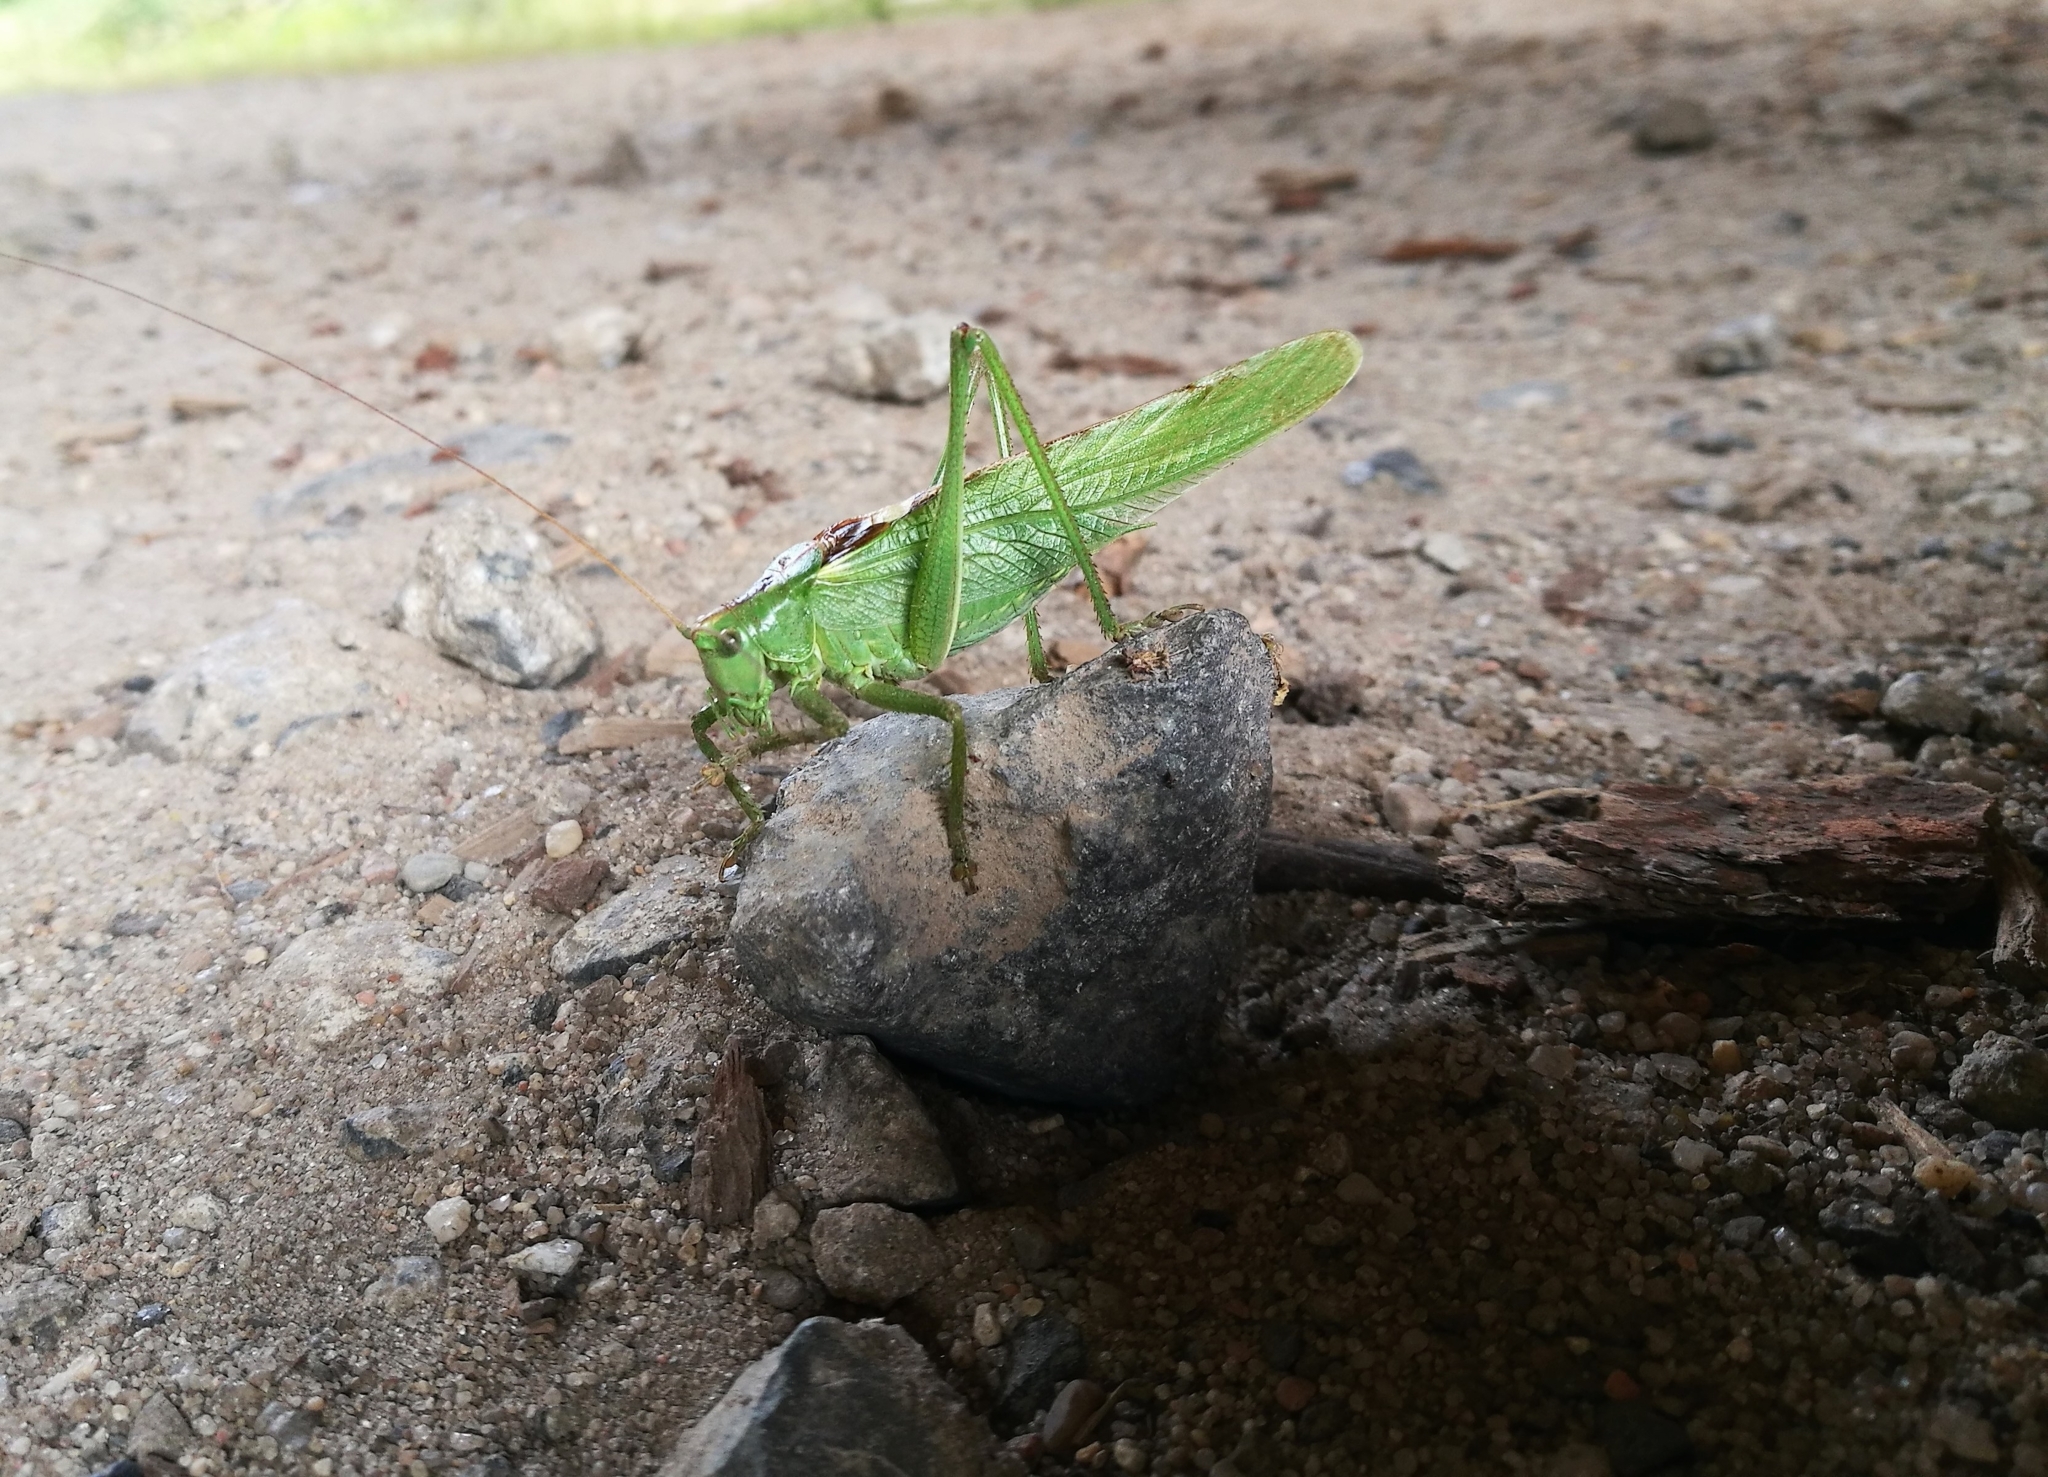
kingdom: Animalia
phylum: Arthropoda
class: Insecta
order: Orthoptera
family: Tettigoniidae
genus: Tettigonia
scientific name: Tettigonia viridissima
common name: Great green bush-cricket
